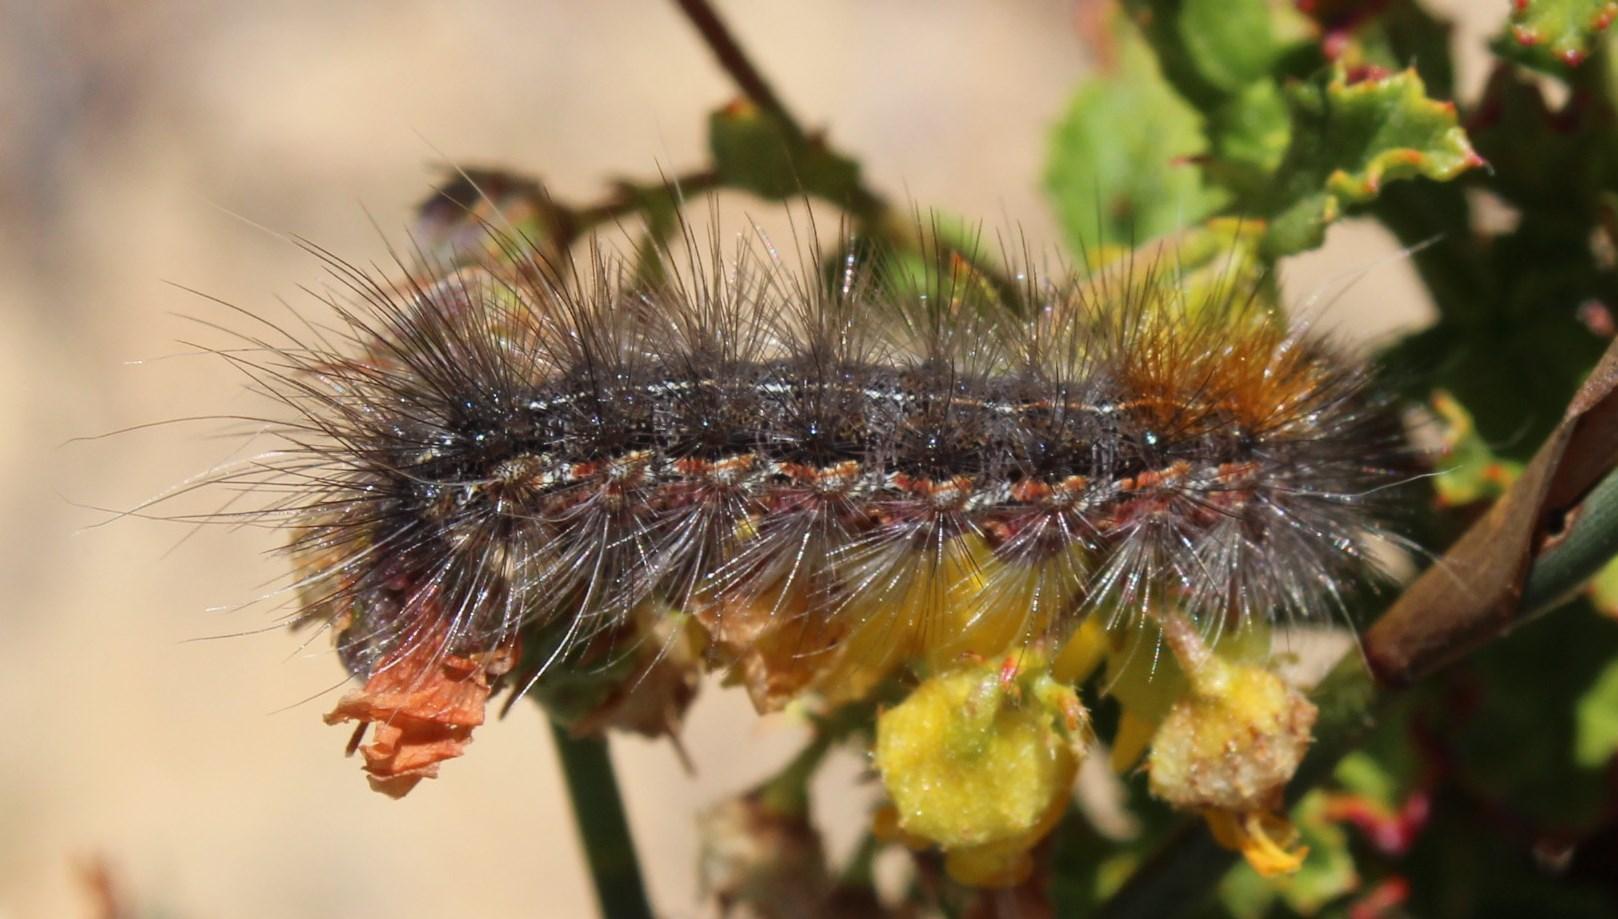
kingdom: Animalia
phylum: Arthropoda
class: Insecta
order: Lepidoptera
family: Erebidae
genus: Paralacydes
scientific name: Paralacydes vocula
